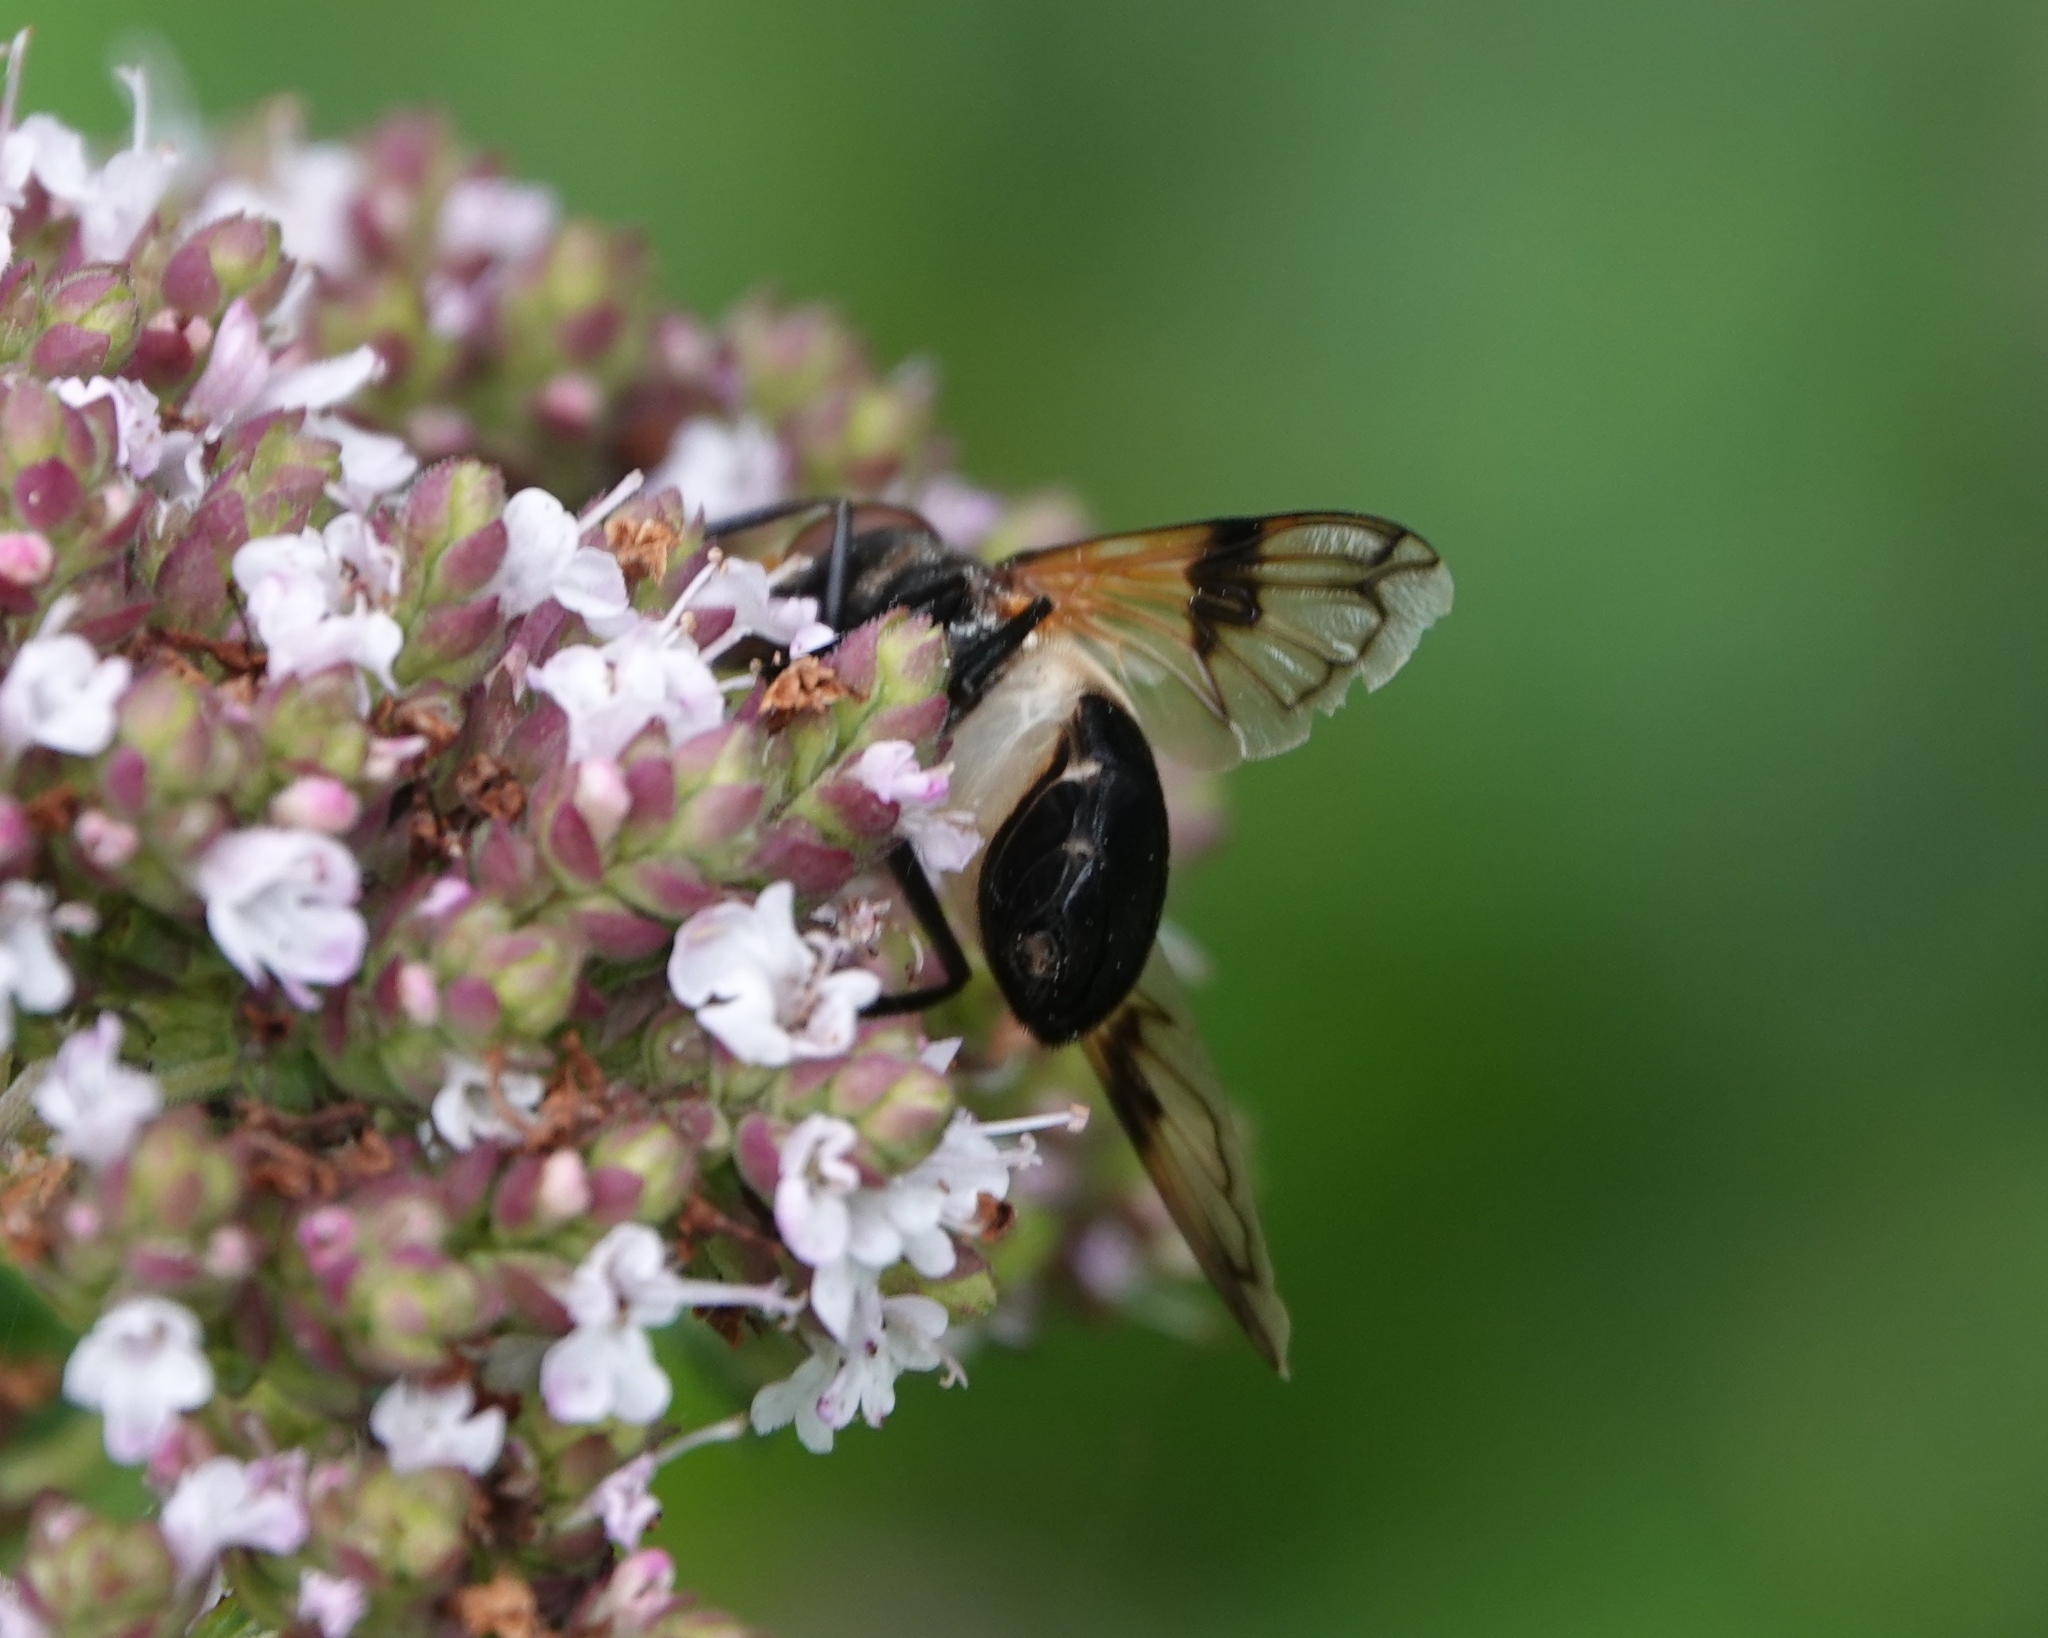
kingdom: Animalia
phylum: Arthropoda
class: Insecta
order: Diptera
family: Syrphidae
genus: Volucella
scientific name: Volucella pellucens
